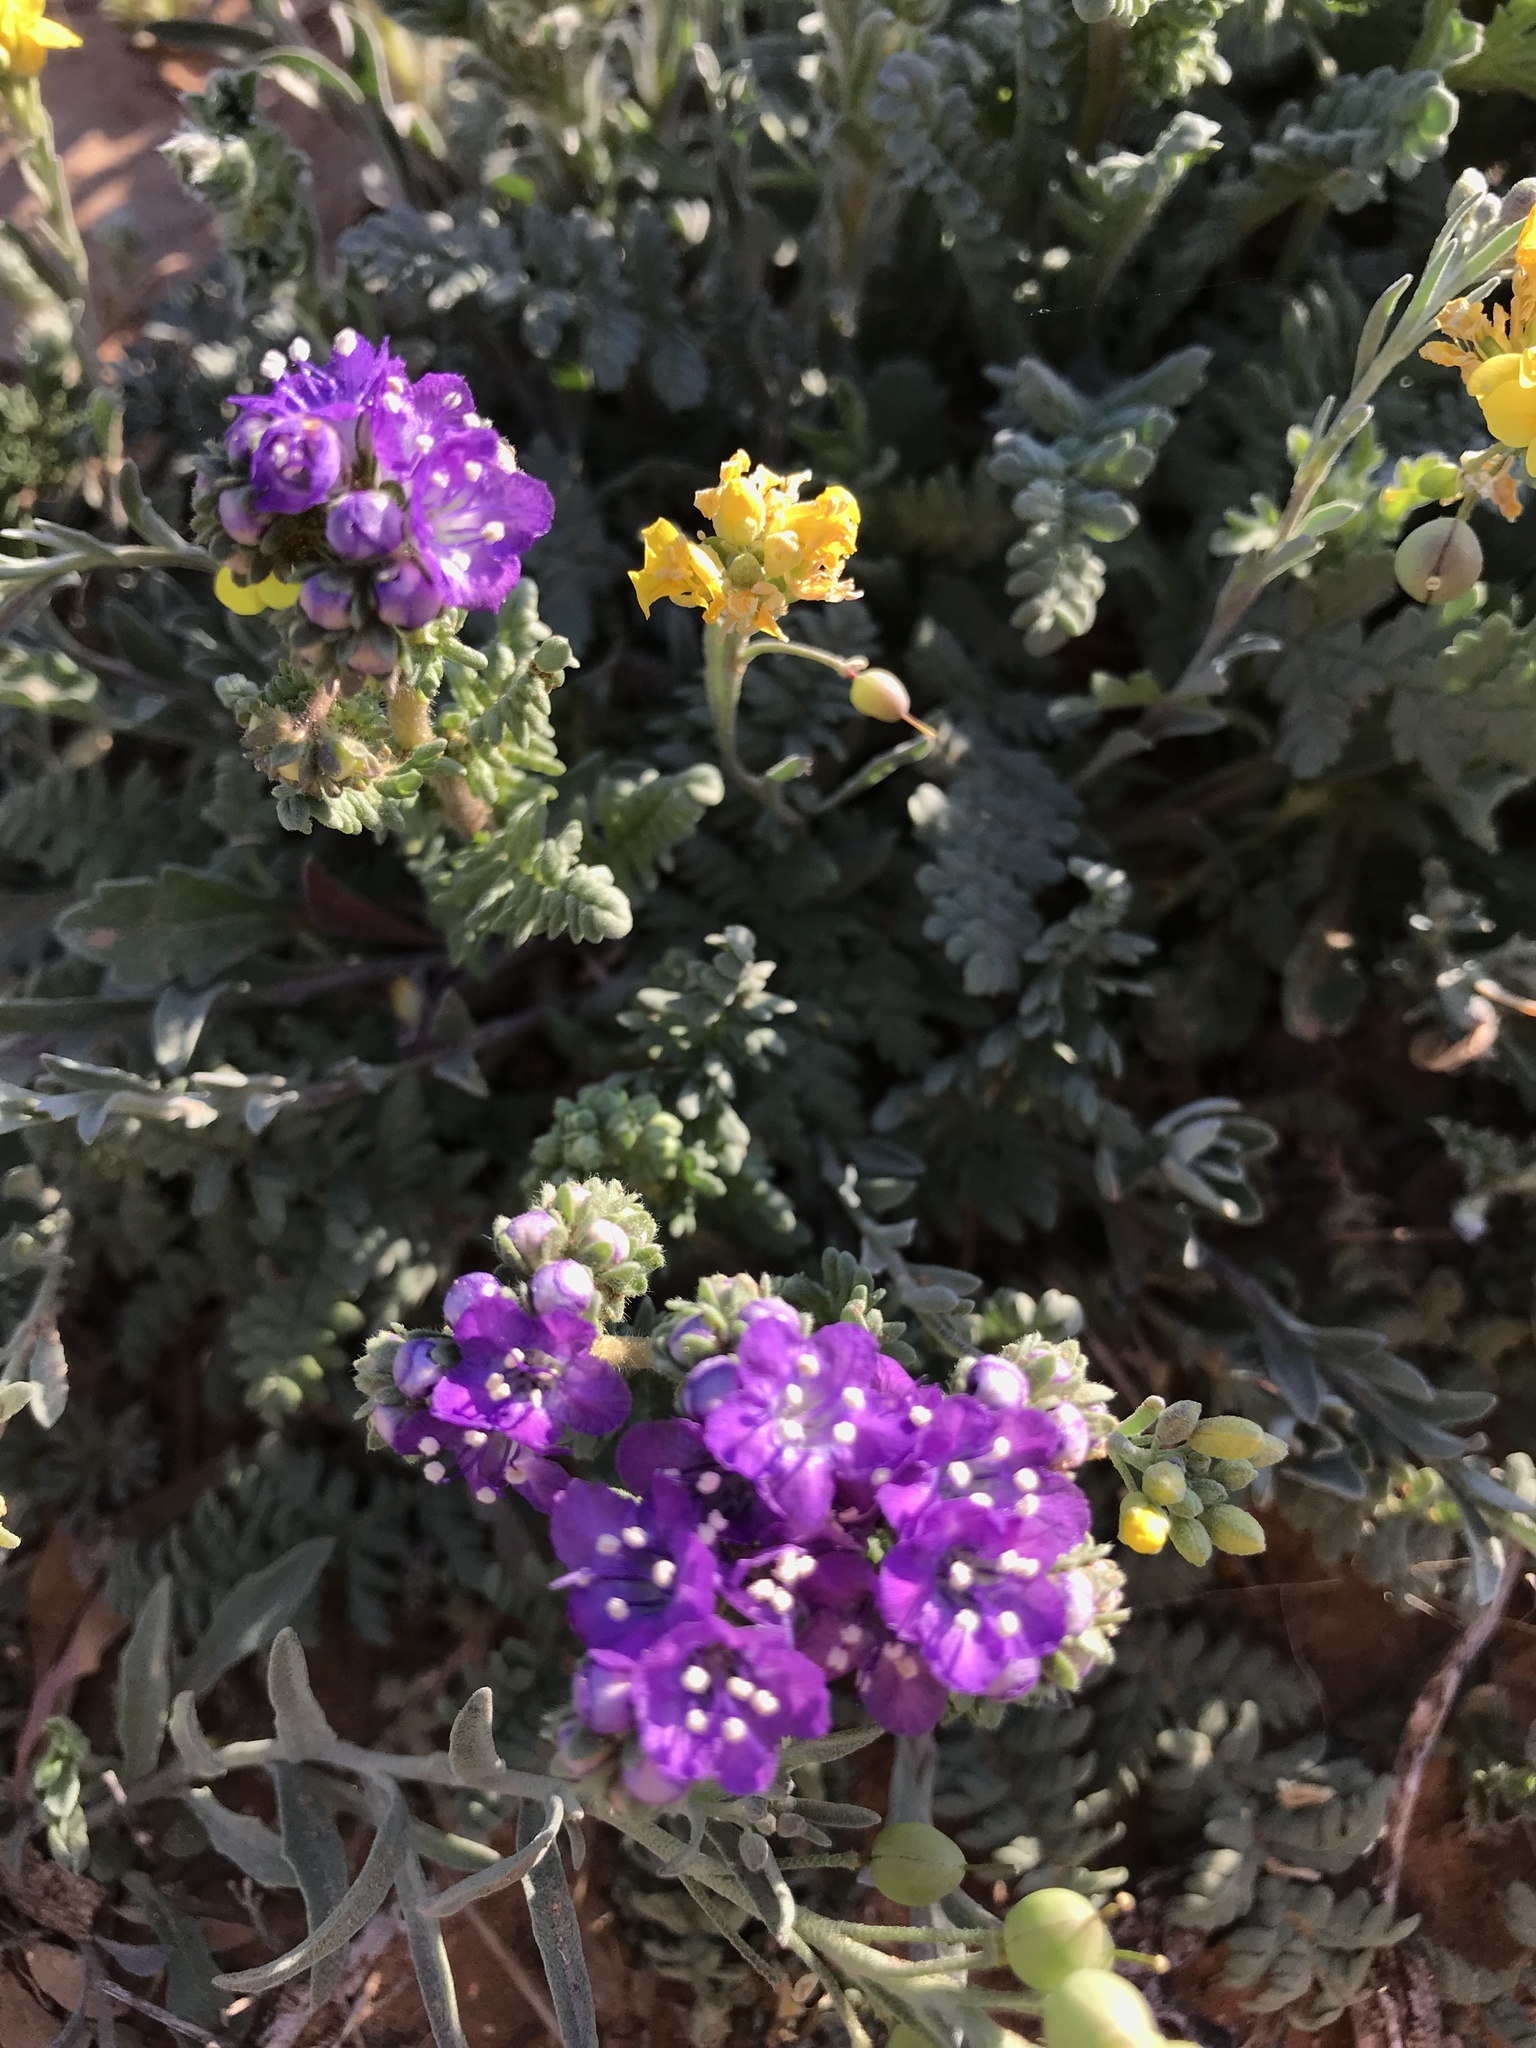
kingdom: Plantae
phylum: Tracheophyta
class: Magnoliopsida
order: Boraginales
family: Hydrophyllaceae
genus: Phacelia
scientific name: Phacelia popei
